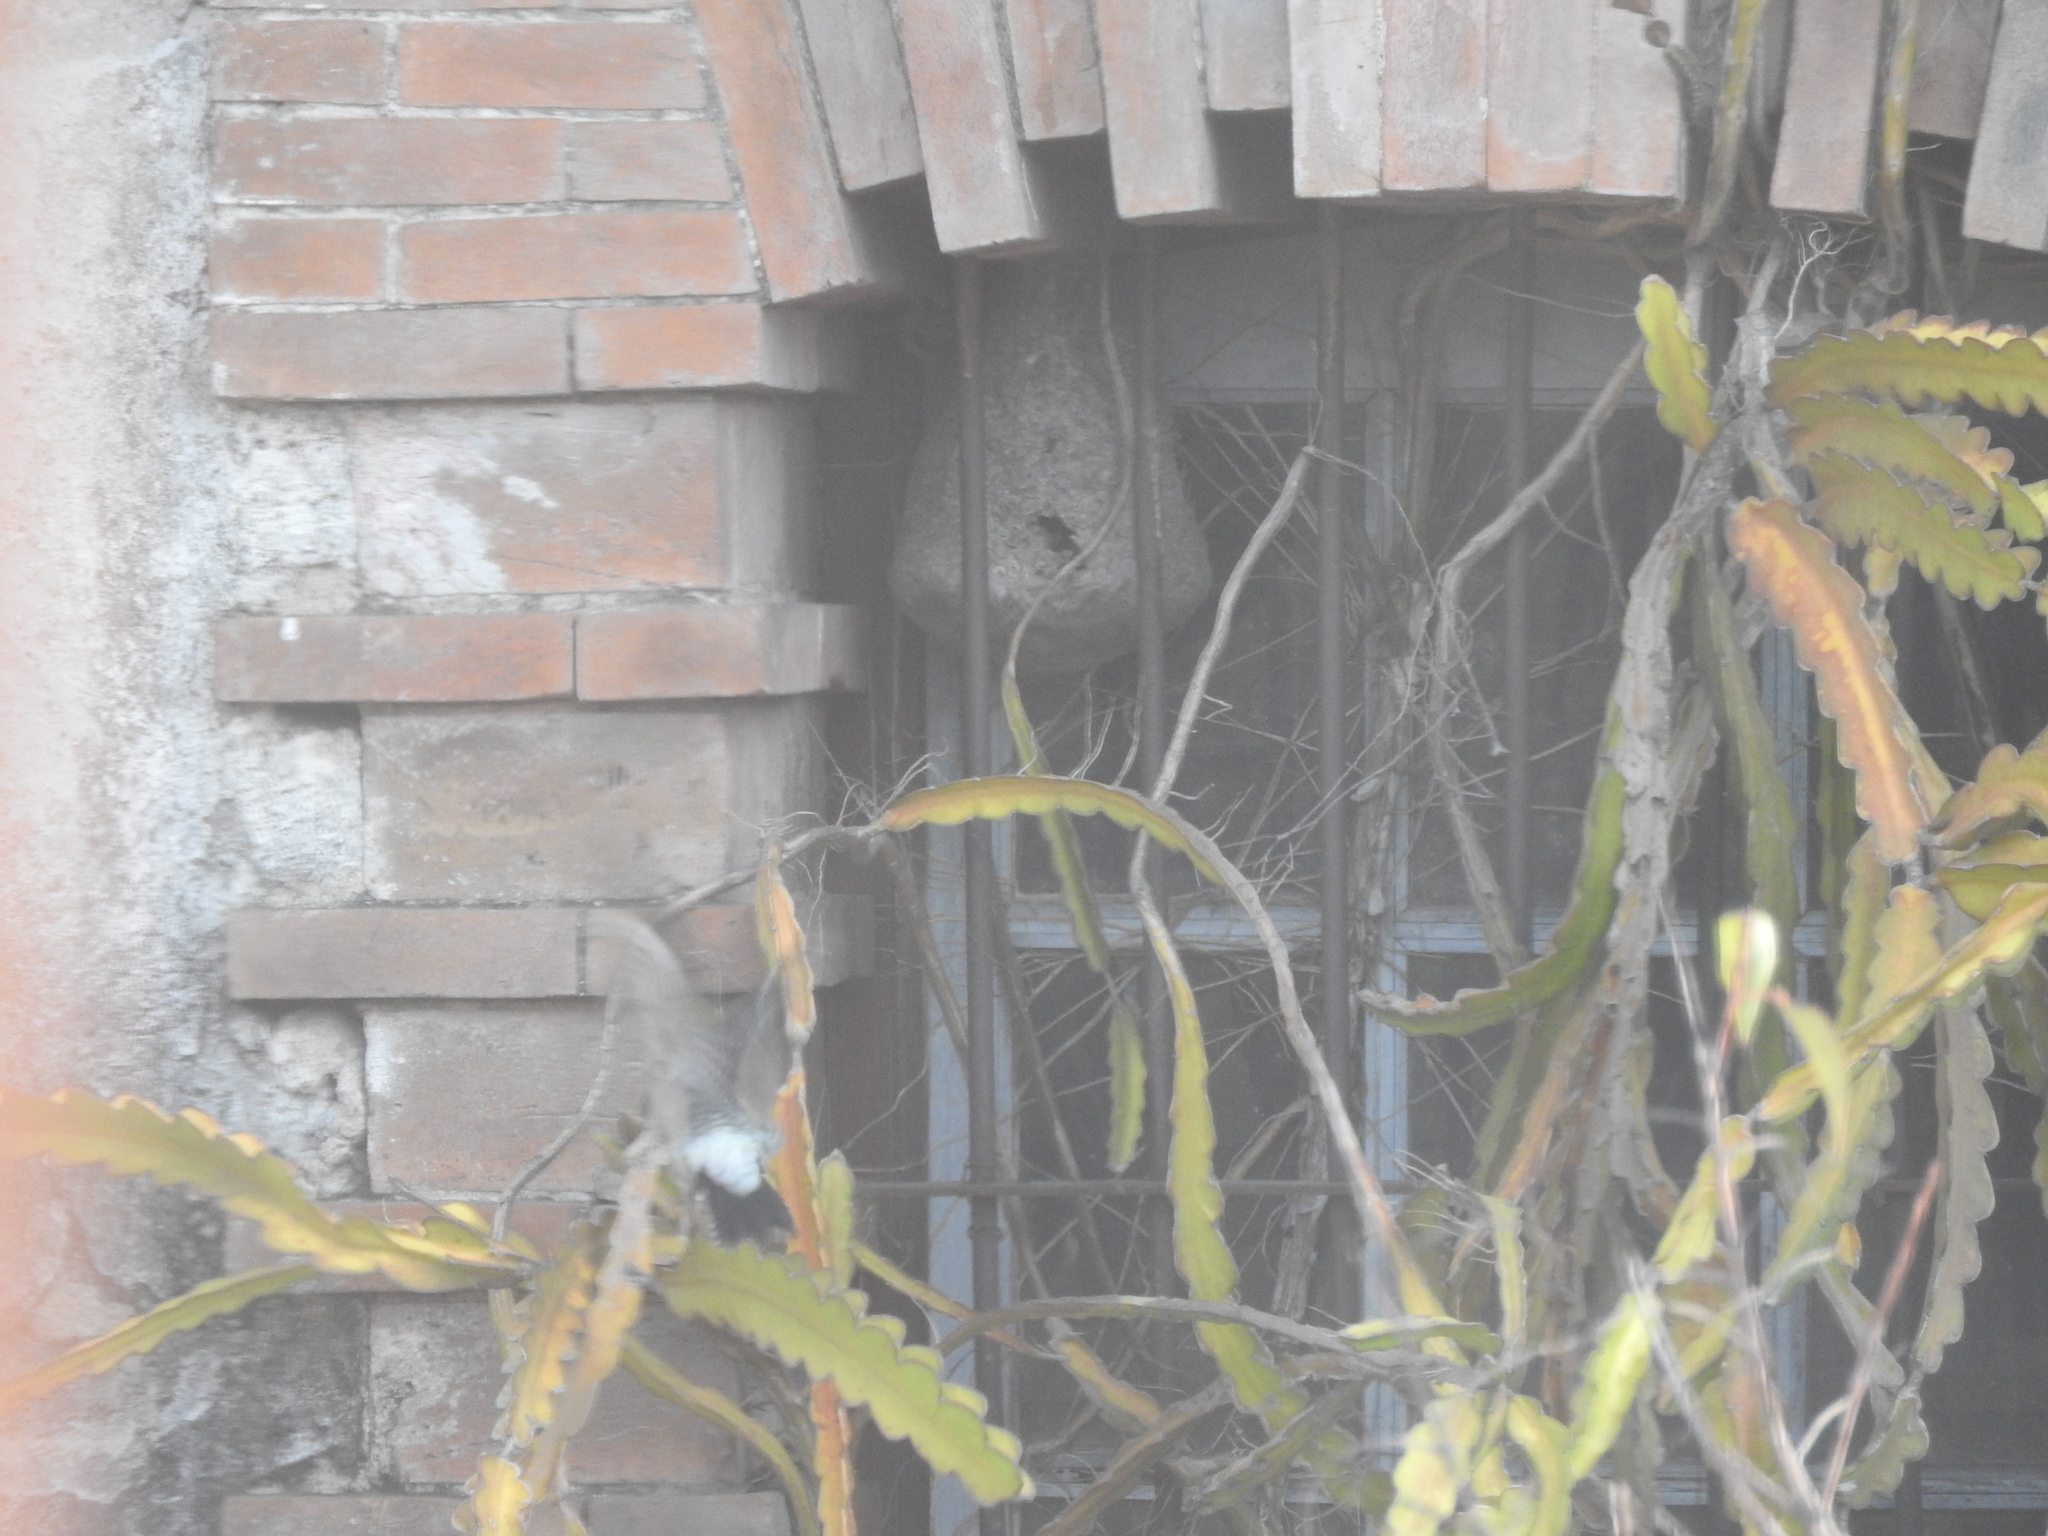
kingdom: Animalia
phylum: Chordata
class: Aves
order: Piciformes
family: Picidae
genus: Melanerpes
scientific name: Melanerpes aurifrons
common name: Golden-fronted woodpecker
